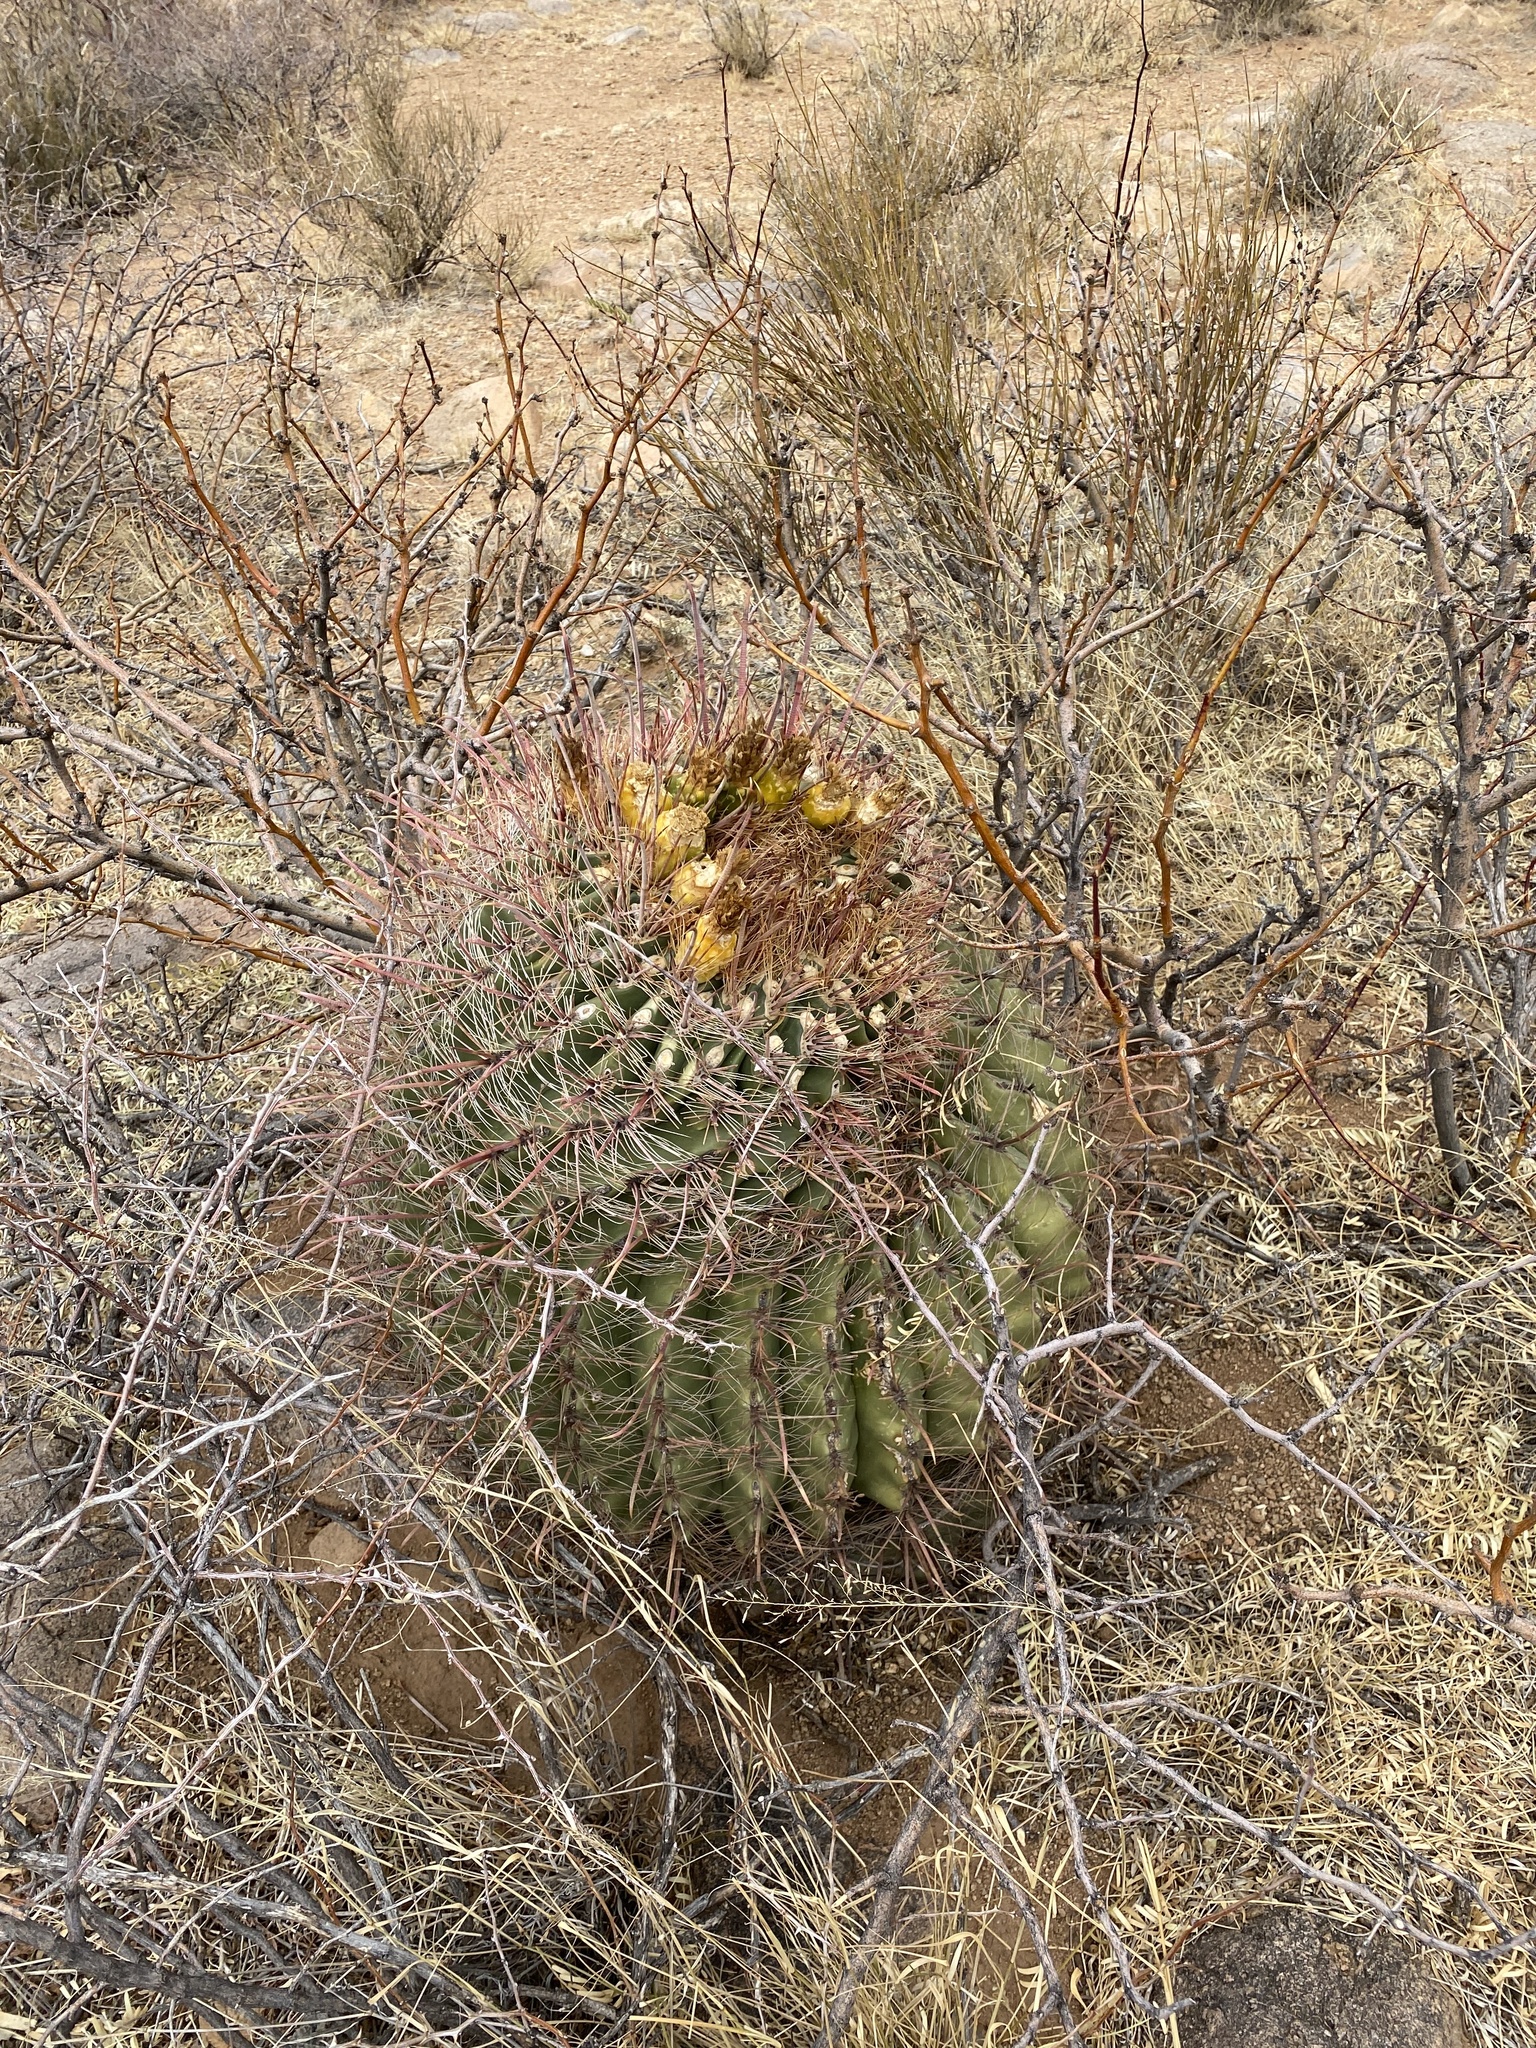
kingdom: Plantae
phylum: Tracheophyta
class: Magnoliopsida
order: Caryophyllales
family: Cactaceae
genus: Ferocactus
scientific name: Ferocactus wislizeni
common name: Candy barrel cactus
